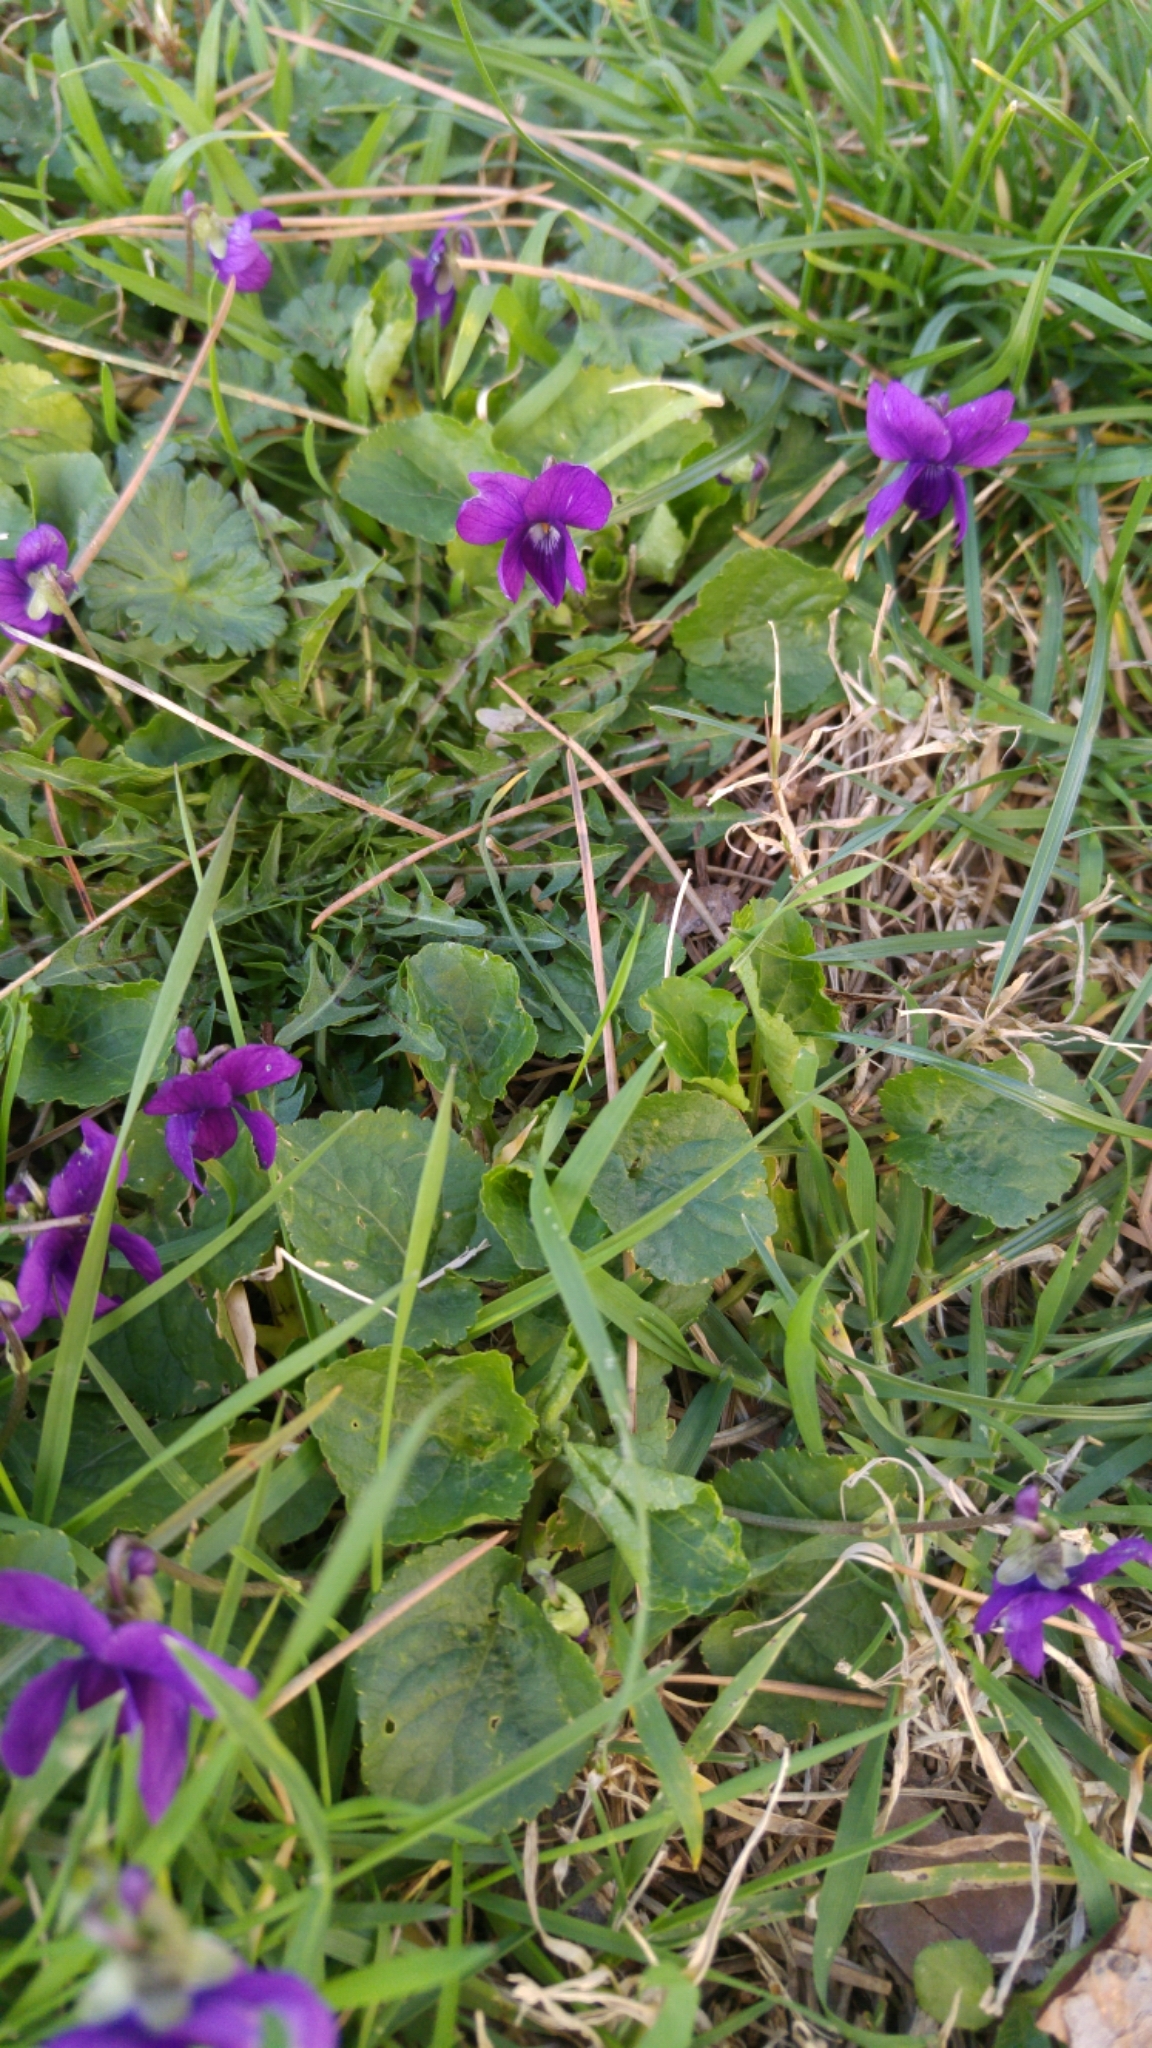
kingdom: Plantae
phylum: Tracheophyta
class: Magnoliopsida
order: Malpighiales
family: Violaceae
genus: Viola
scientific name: Viola odorata
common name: Sweet violet
